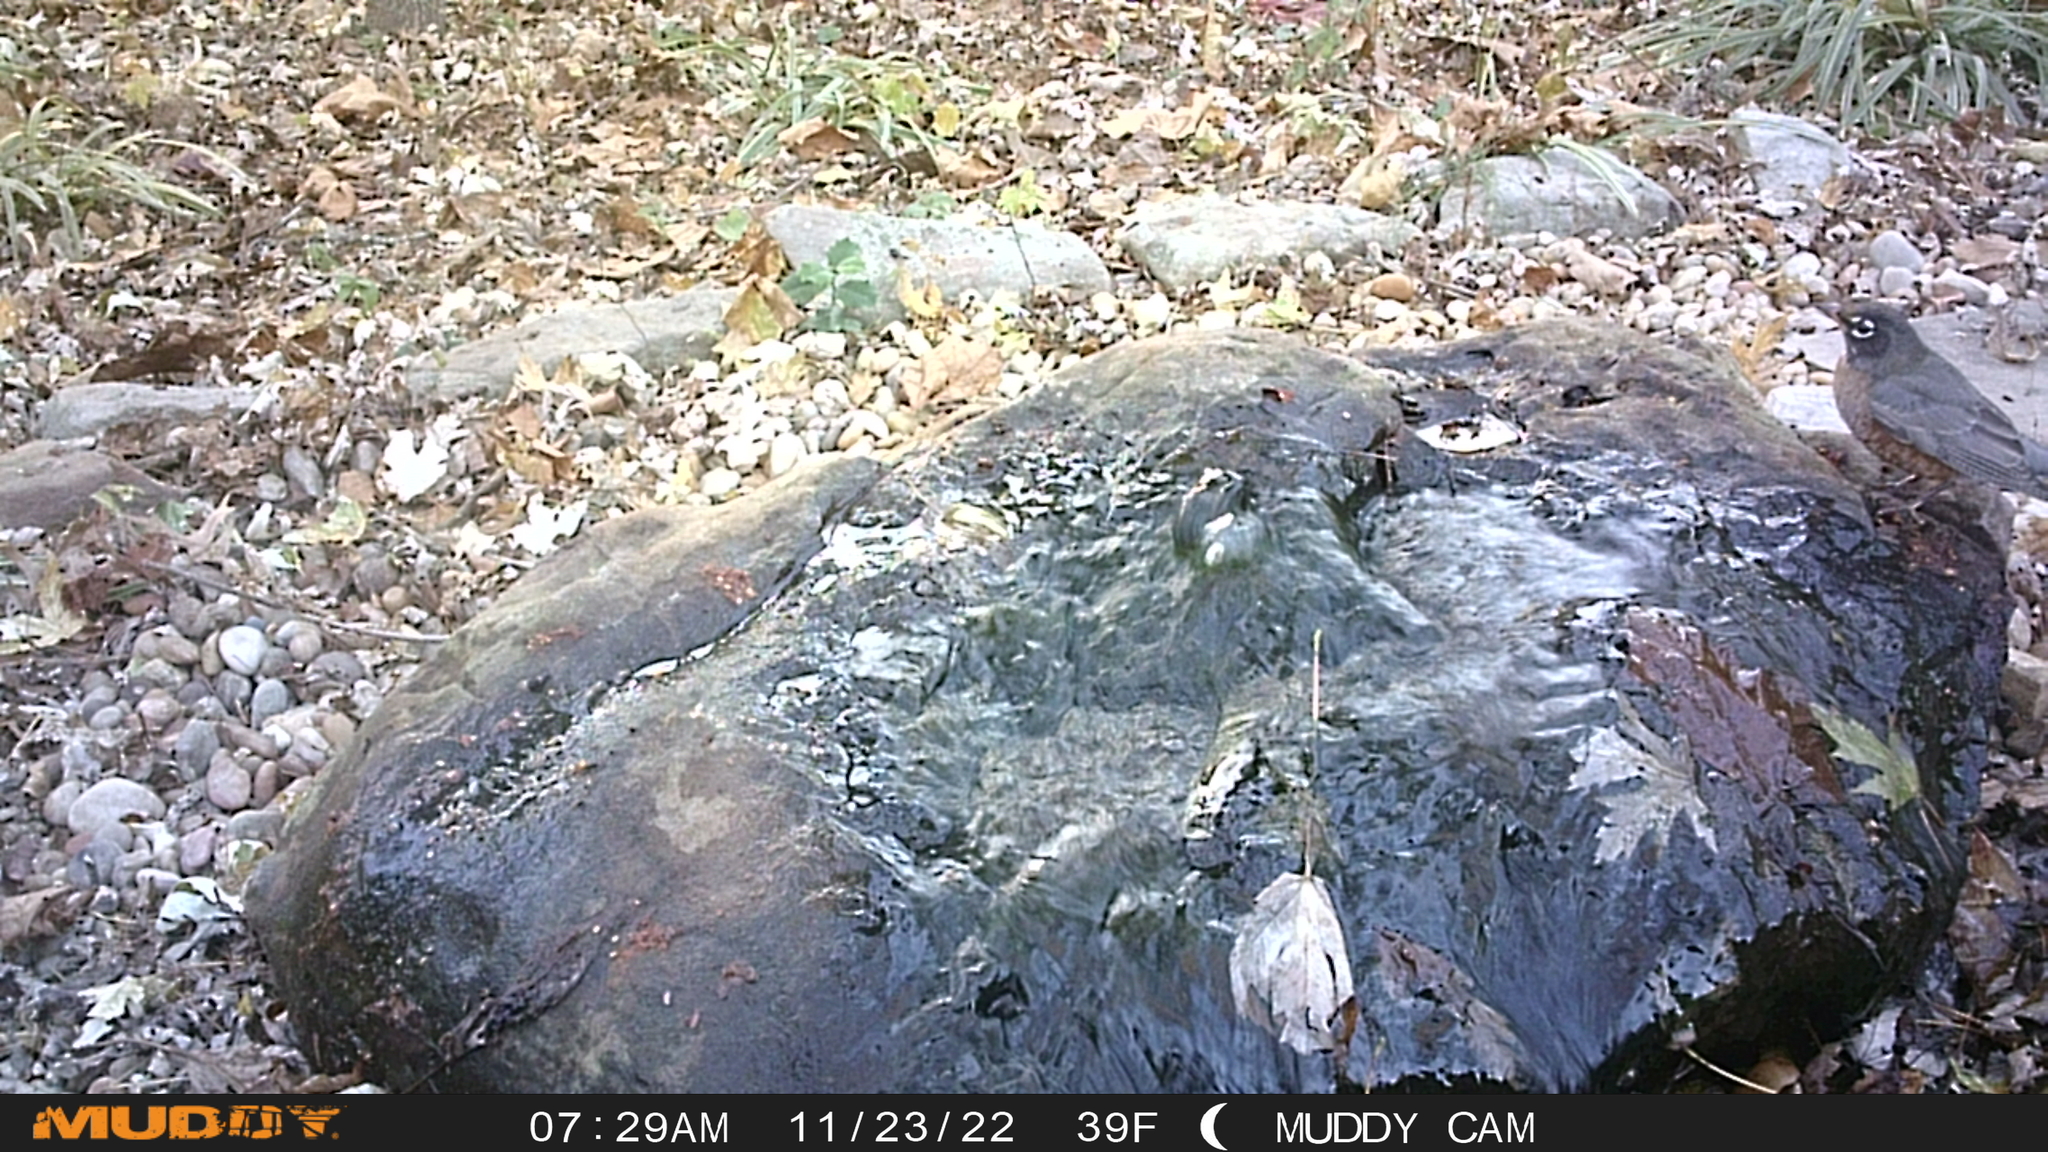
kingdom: Animalia
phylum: Chordata
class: Aves
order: Passeriformes
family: Turdidae
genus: Turdus
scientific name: Turdus migratorius
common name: American robin
